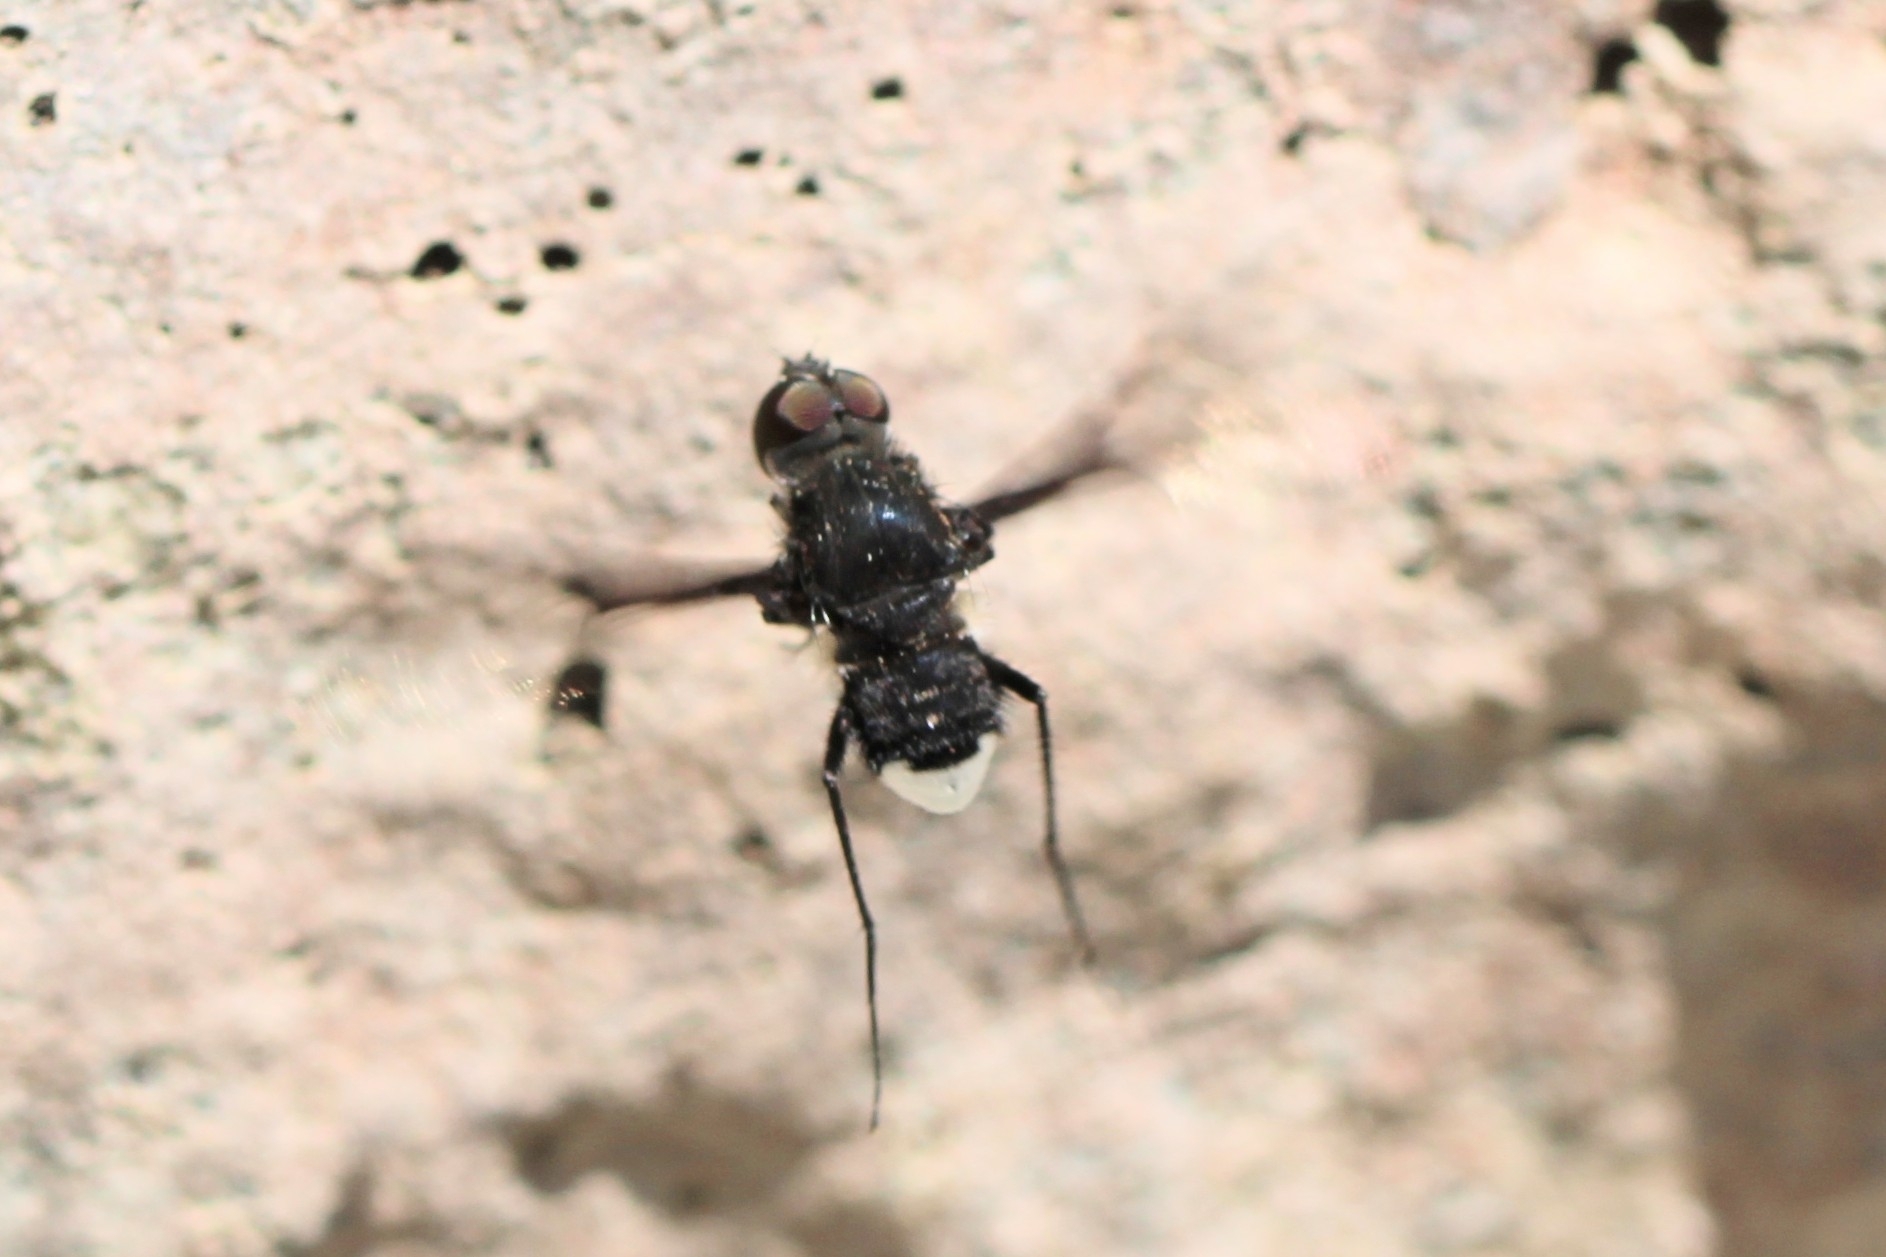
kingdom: Animalia
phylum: Arthropoda
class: Insecta
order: Diptera
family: Bombyliidae
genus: Anthrax
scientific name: Anthrax argyropygus
